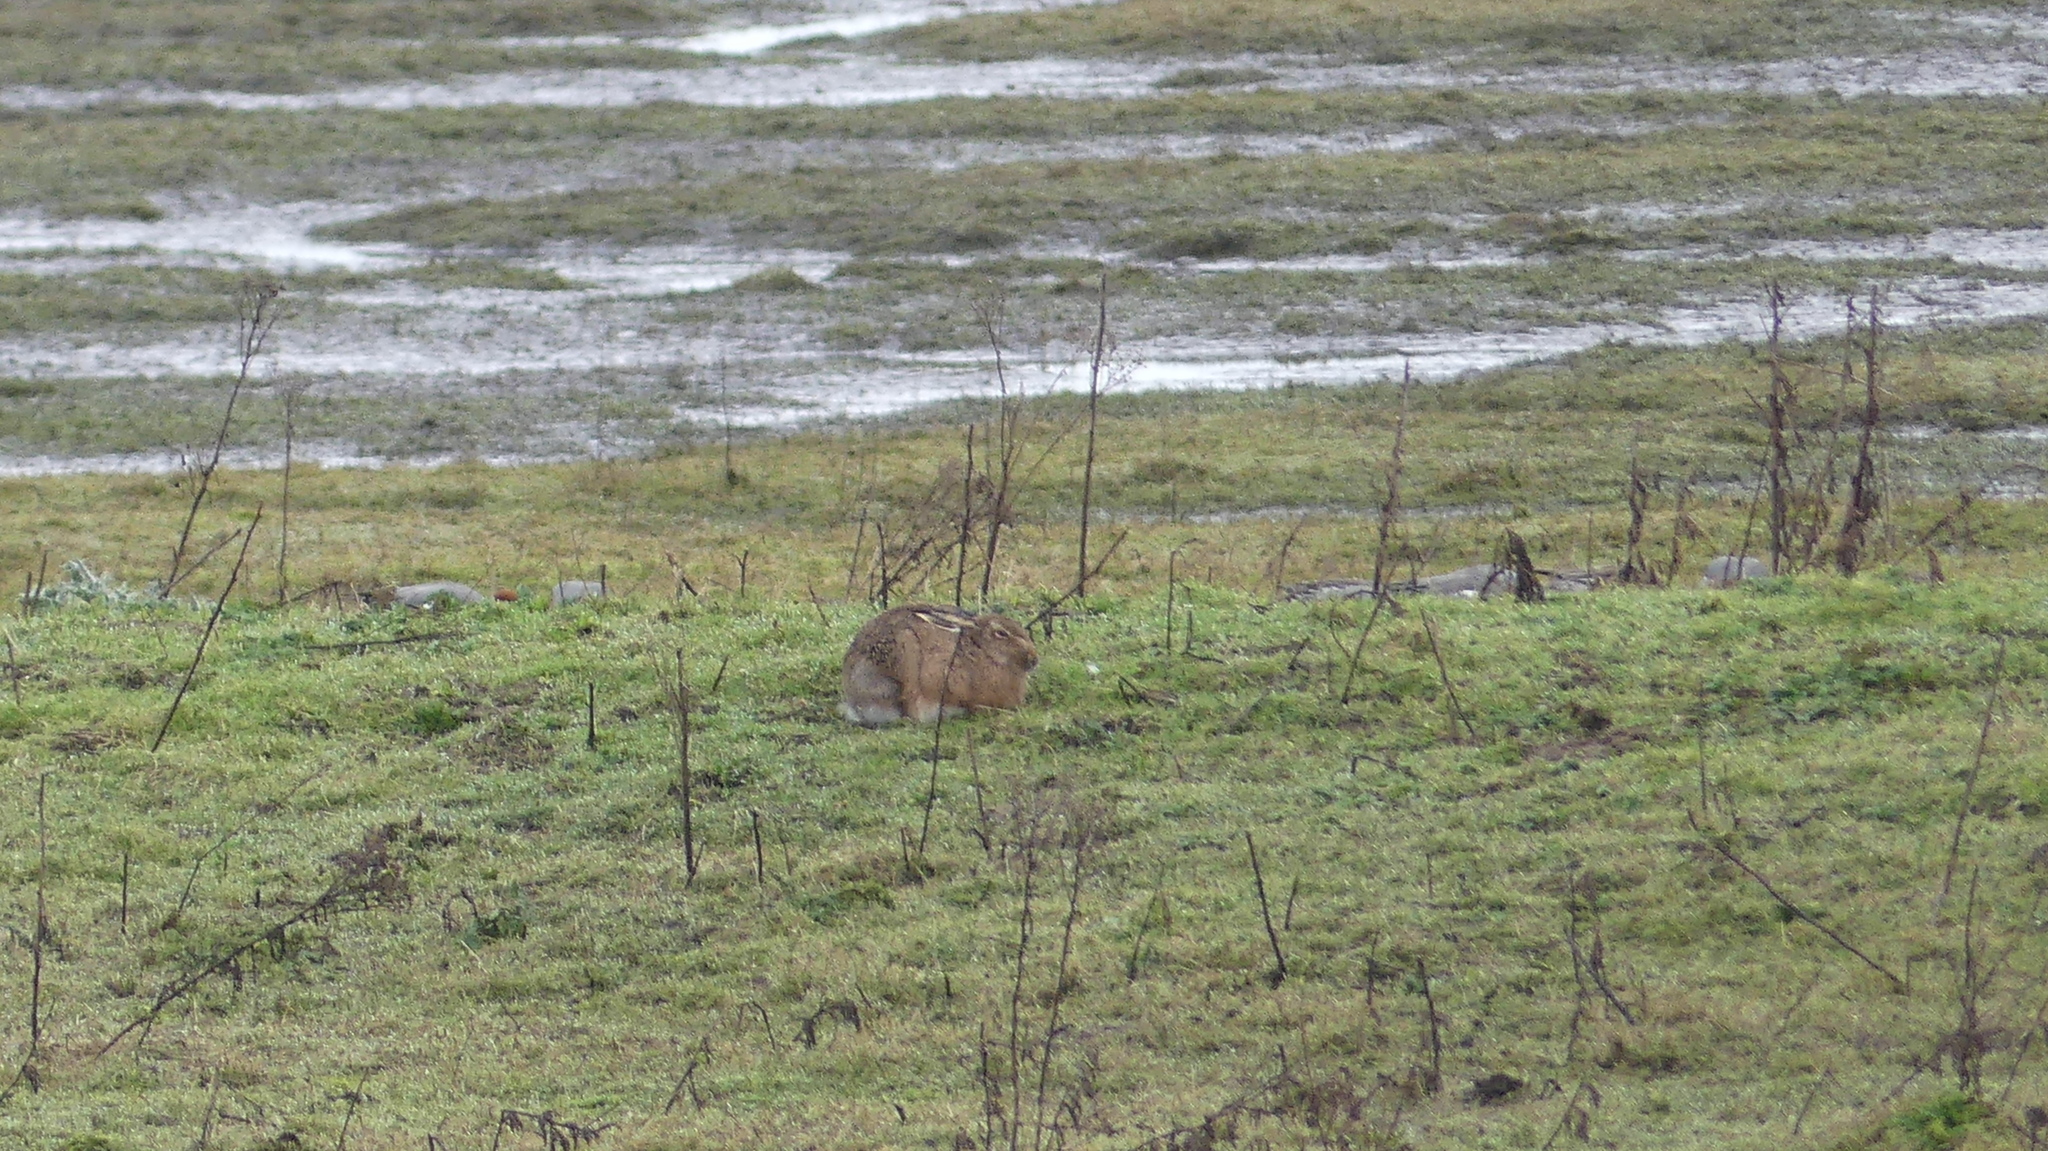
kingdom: Animalia
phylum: Chordata
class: Mammalia
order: Lagomorpha
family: Leporidae
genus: Lepus
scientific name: Lepus europaeus
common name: European hare
